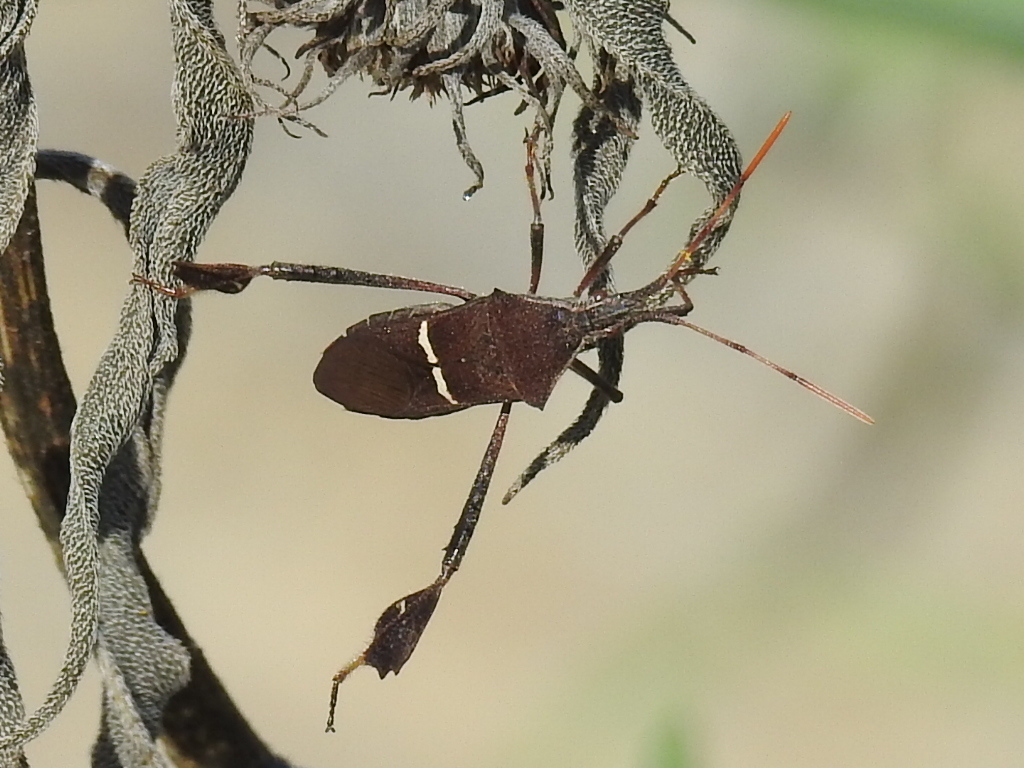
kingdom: Animalia
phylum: Arthropoda
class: Insecta
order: Hemiptera
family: Coreidae
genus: Leptoglossus
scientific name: Leptoglossus phyllopus
